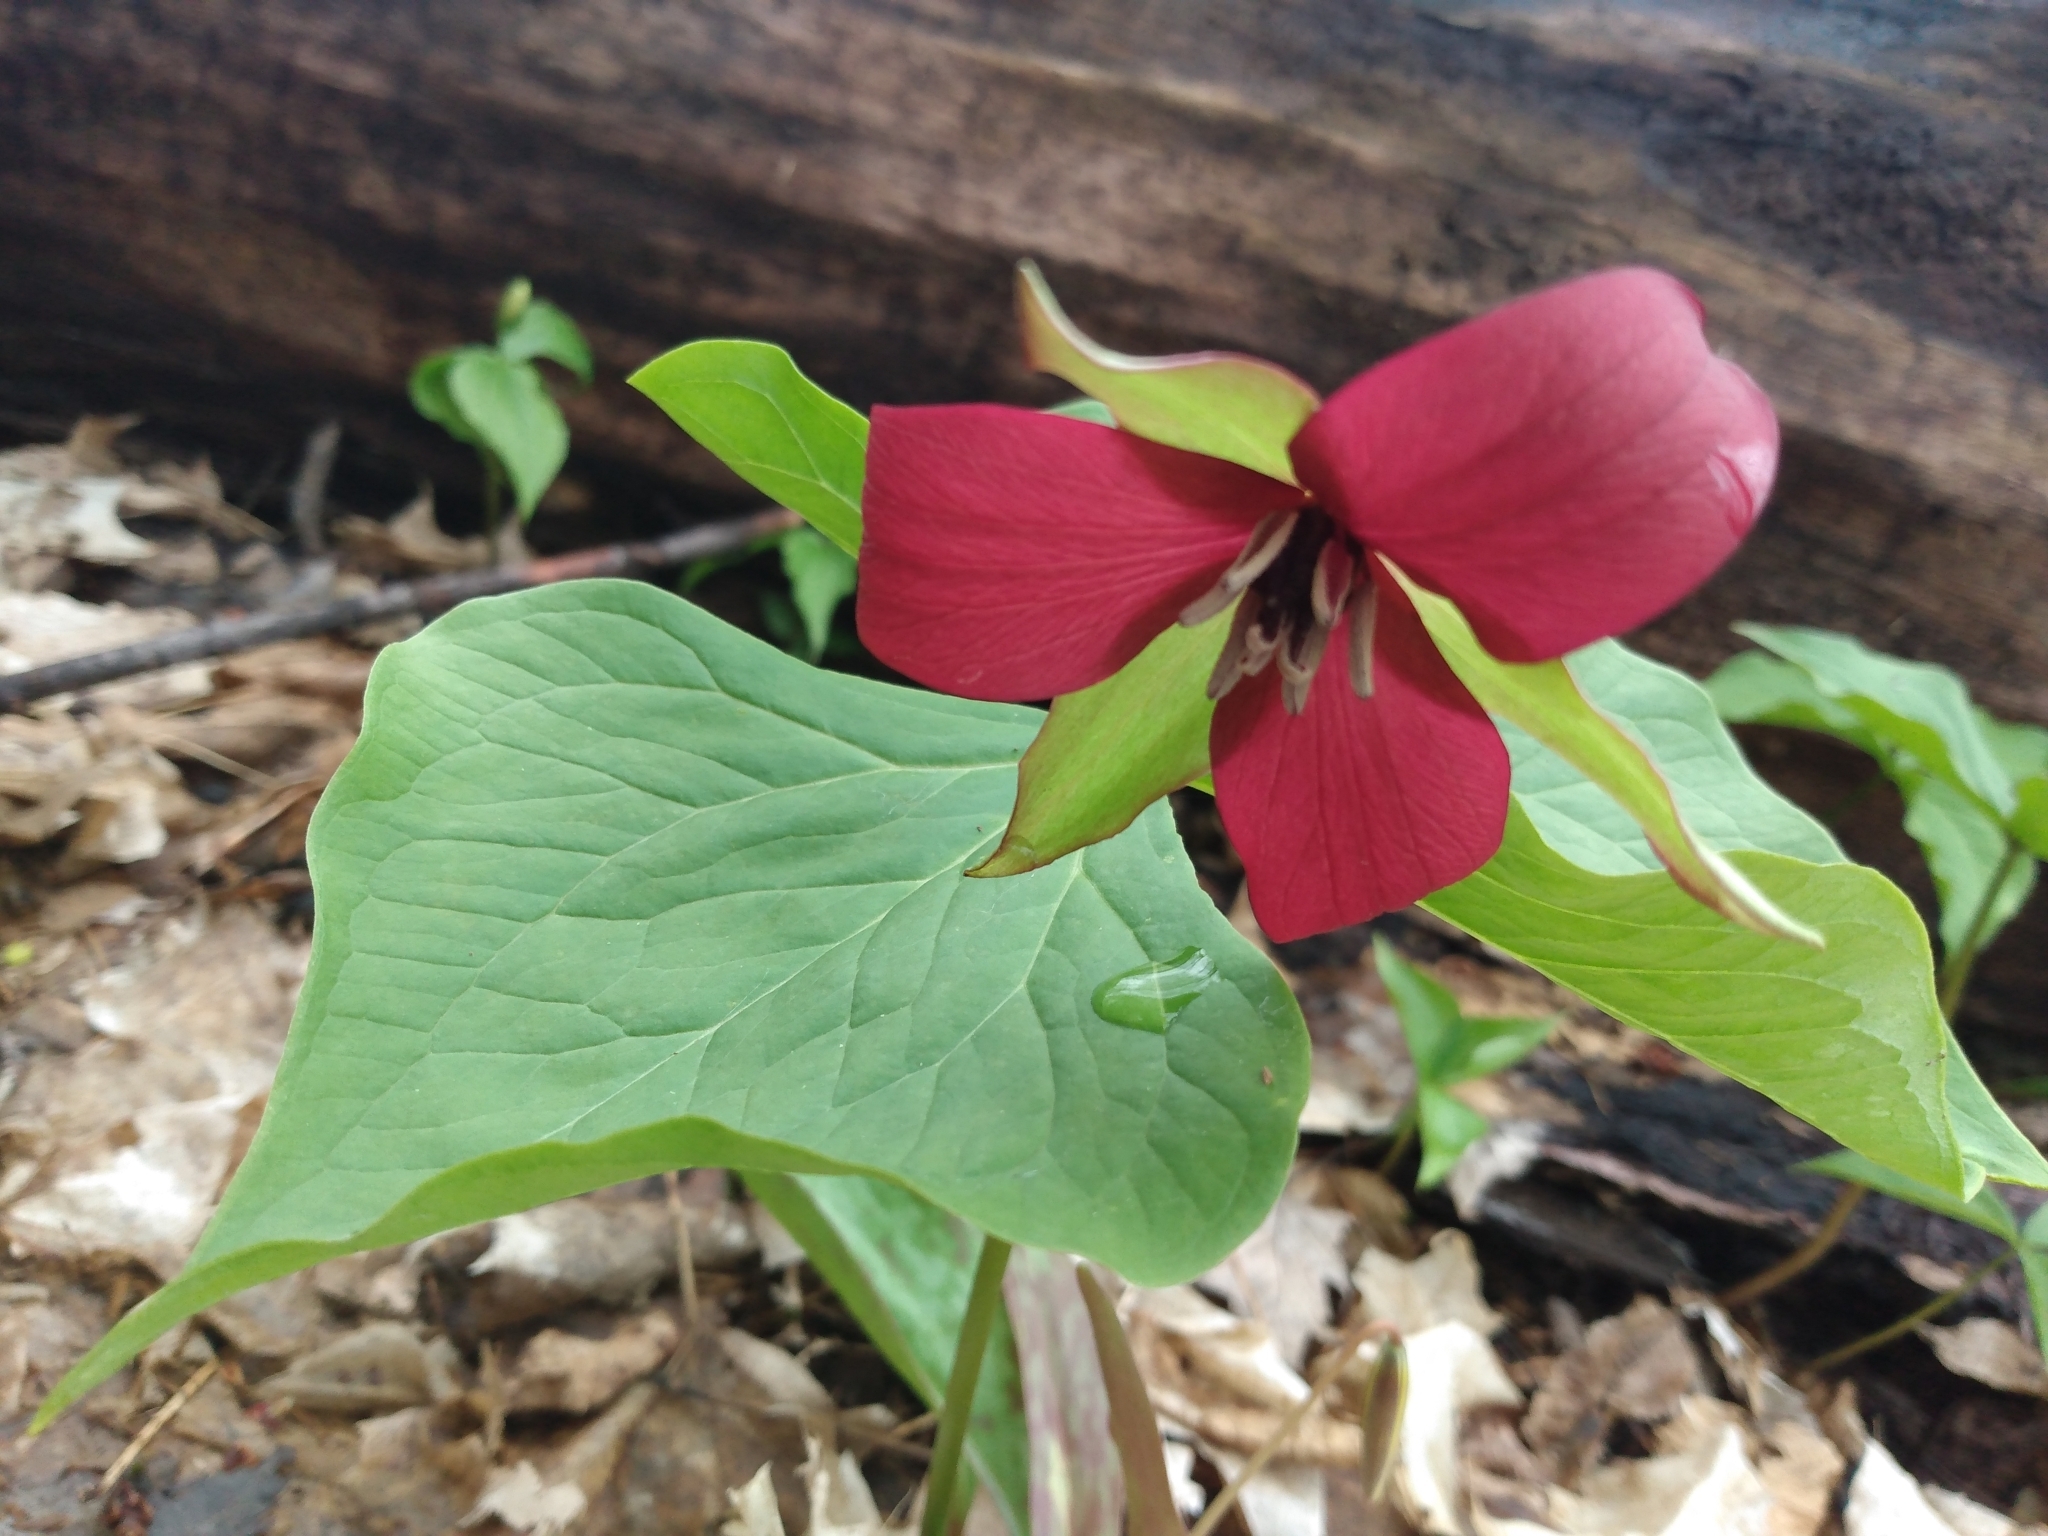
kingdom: Plantae
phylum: Tracheophyta
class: Liliopsida
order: Liliales
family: Melanthiaceae
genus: Trillium
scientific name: Trillium erectum
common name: Purple trillium
